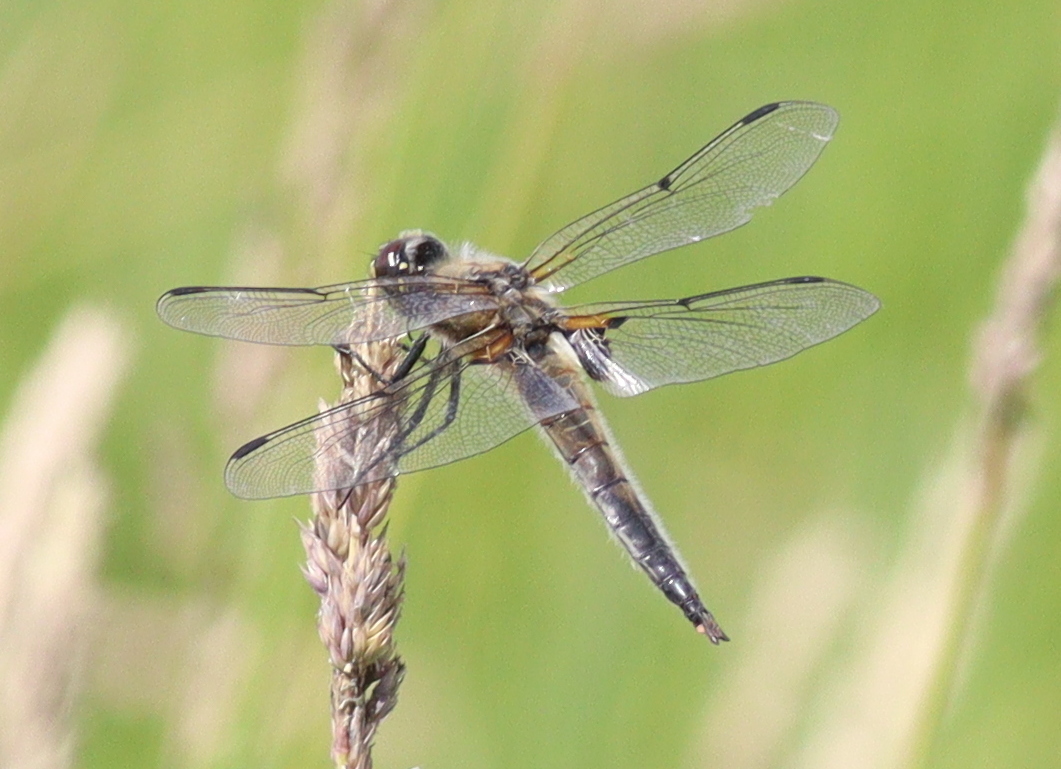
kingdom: Animalia
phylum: Arthropoda
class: Insecta
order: Odonata
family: Libellulidae
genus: Libellula
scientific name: Libellula quadrimaculata
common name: Four-spotted chaser
